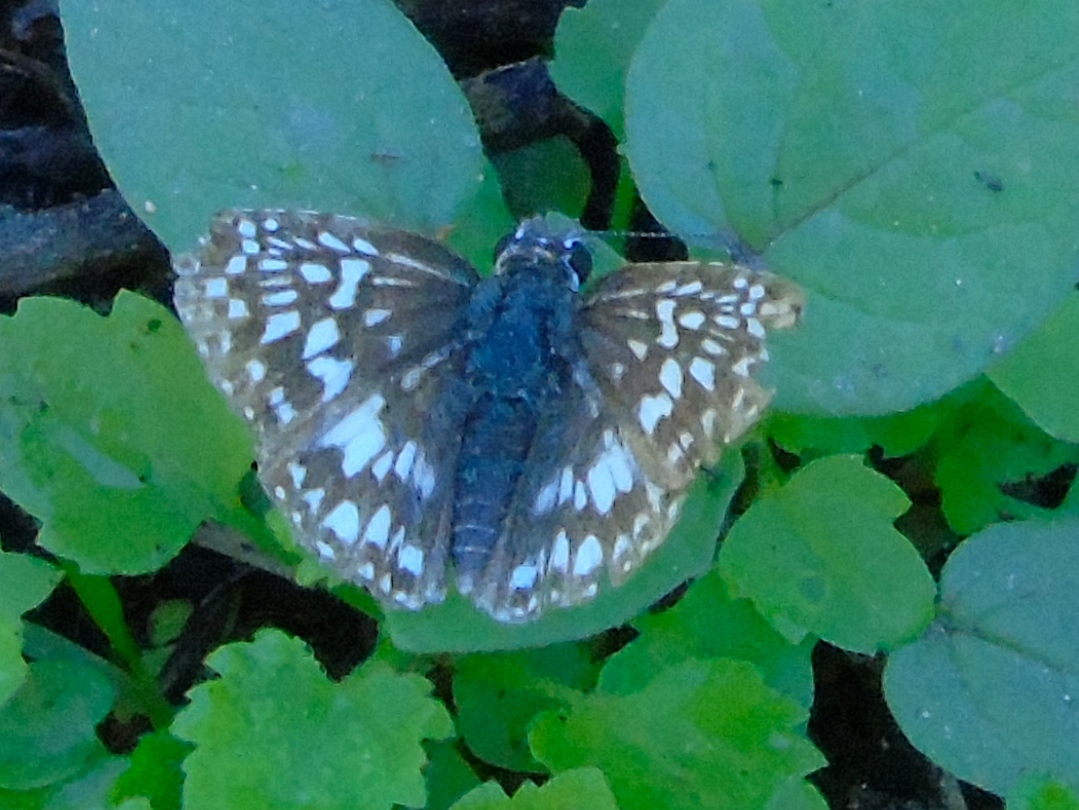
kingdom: Animalia
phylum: Arthropoda
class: Insecta
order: Lepidoptera
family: Hesperiidae
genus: Burnsius
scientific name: Burnsius
